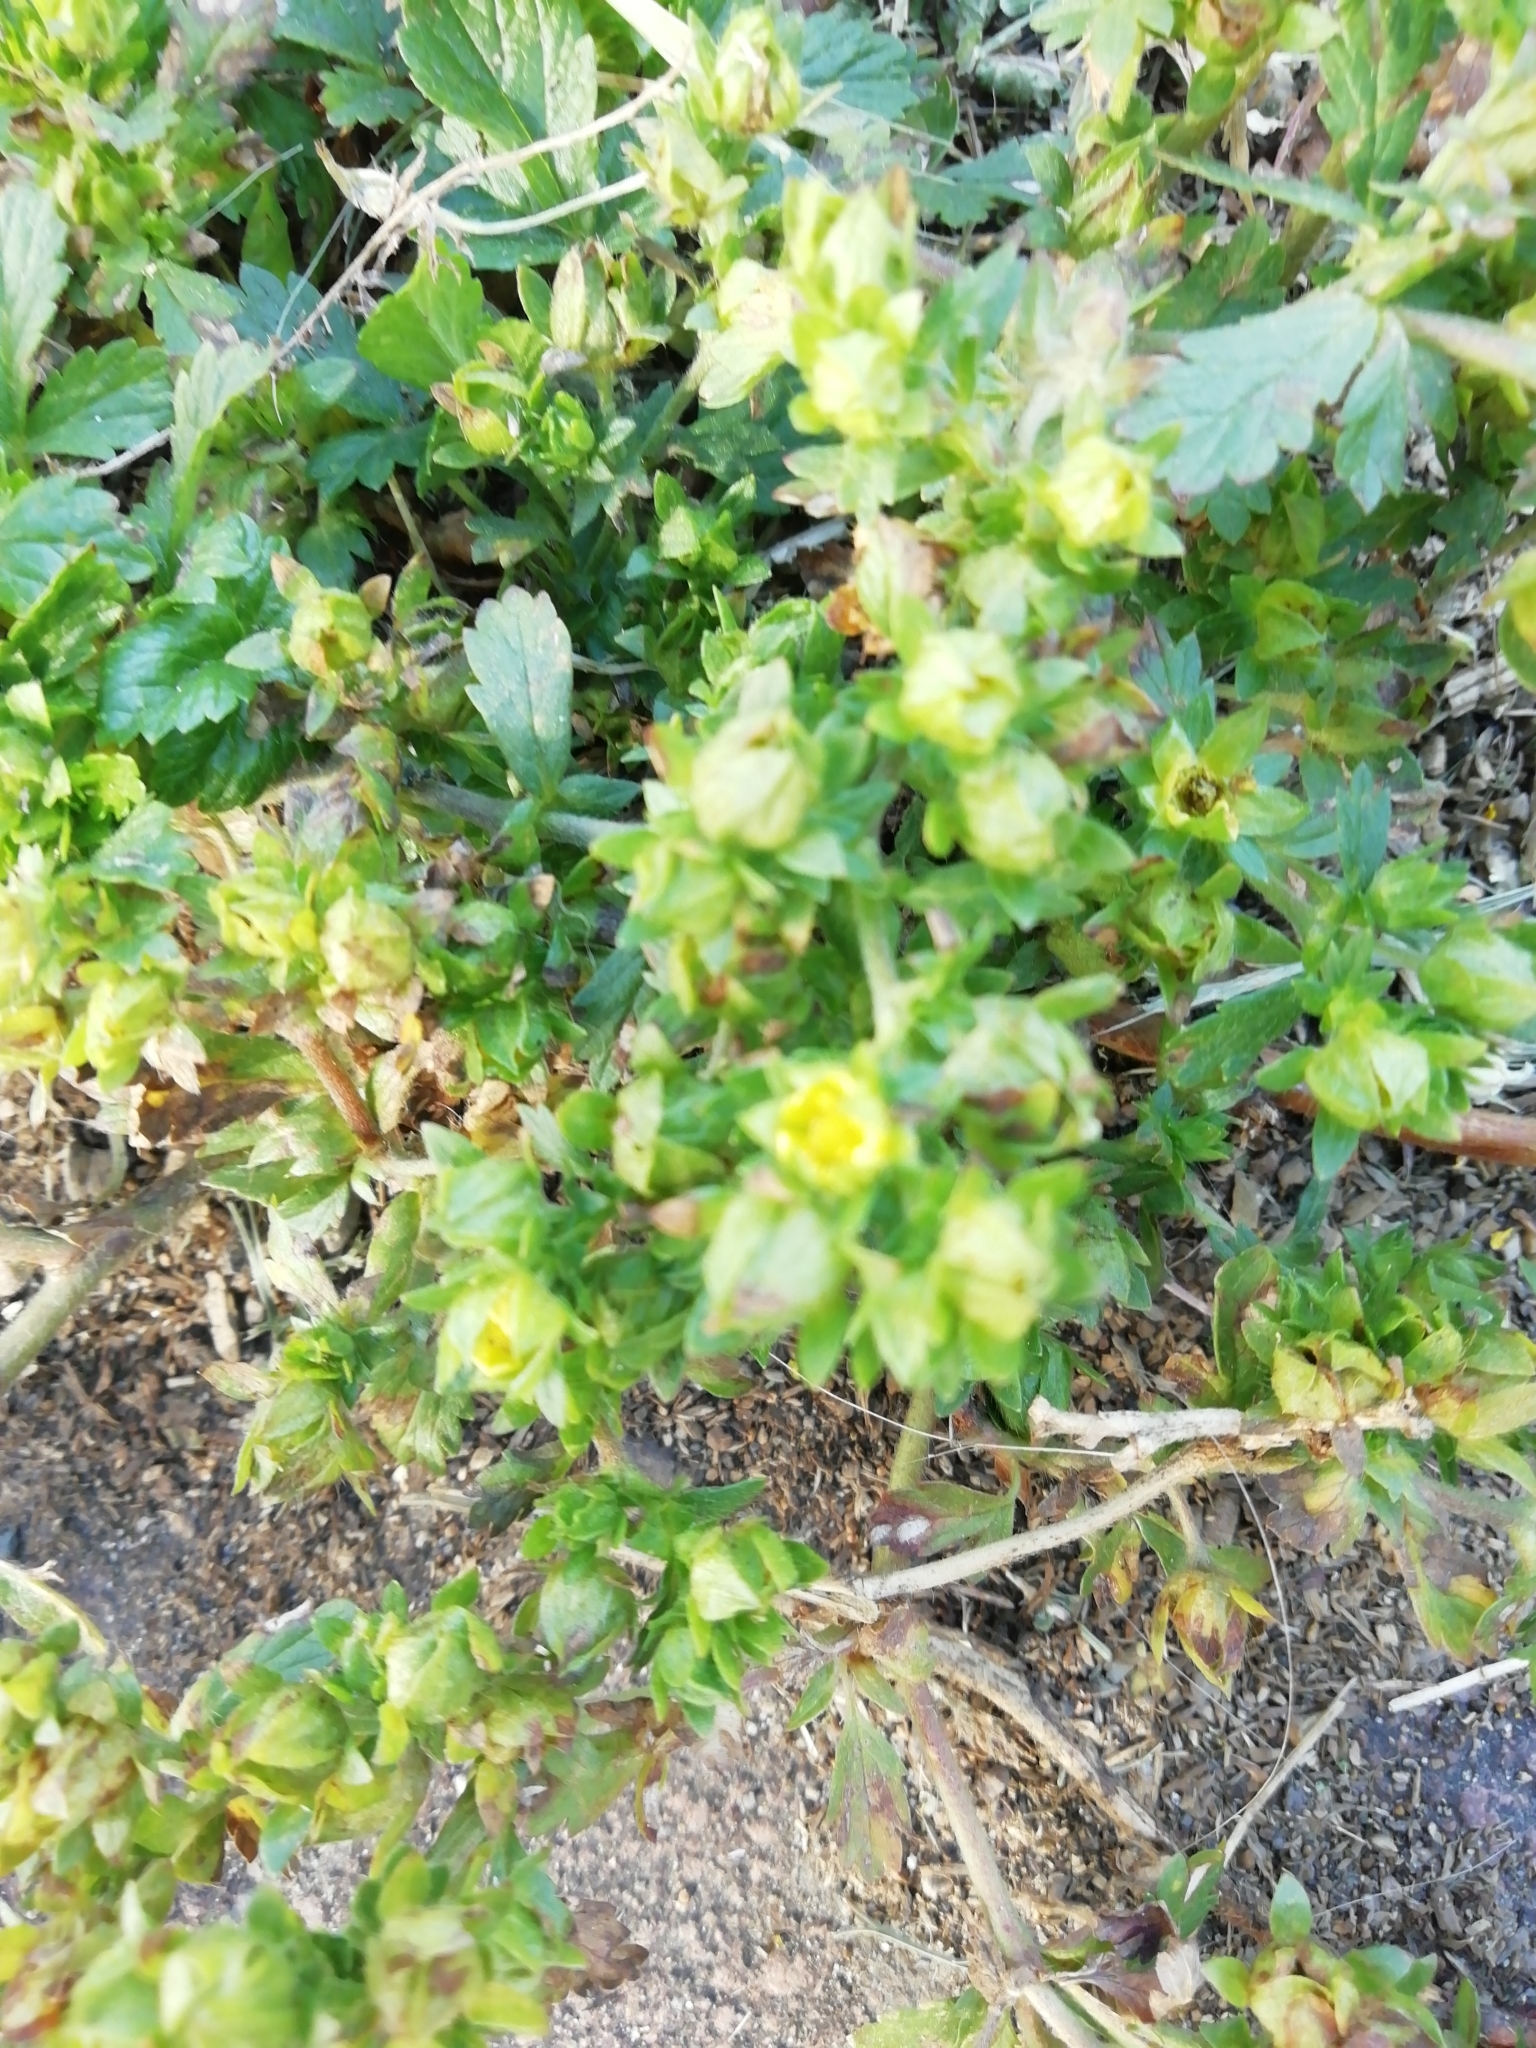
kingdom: Plantae
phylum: Tracheophyta
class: Magnoliopsida
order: Rosales
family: Rosaceae
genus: Potentilla
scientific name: Potentilla norvegica
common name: Ternate-leaved cinquefoil
